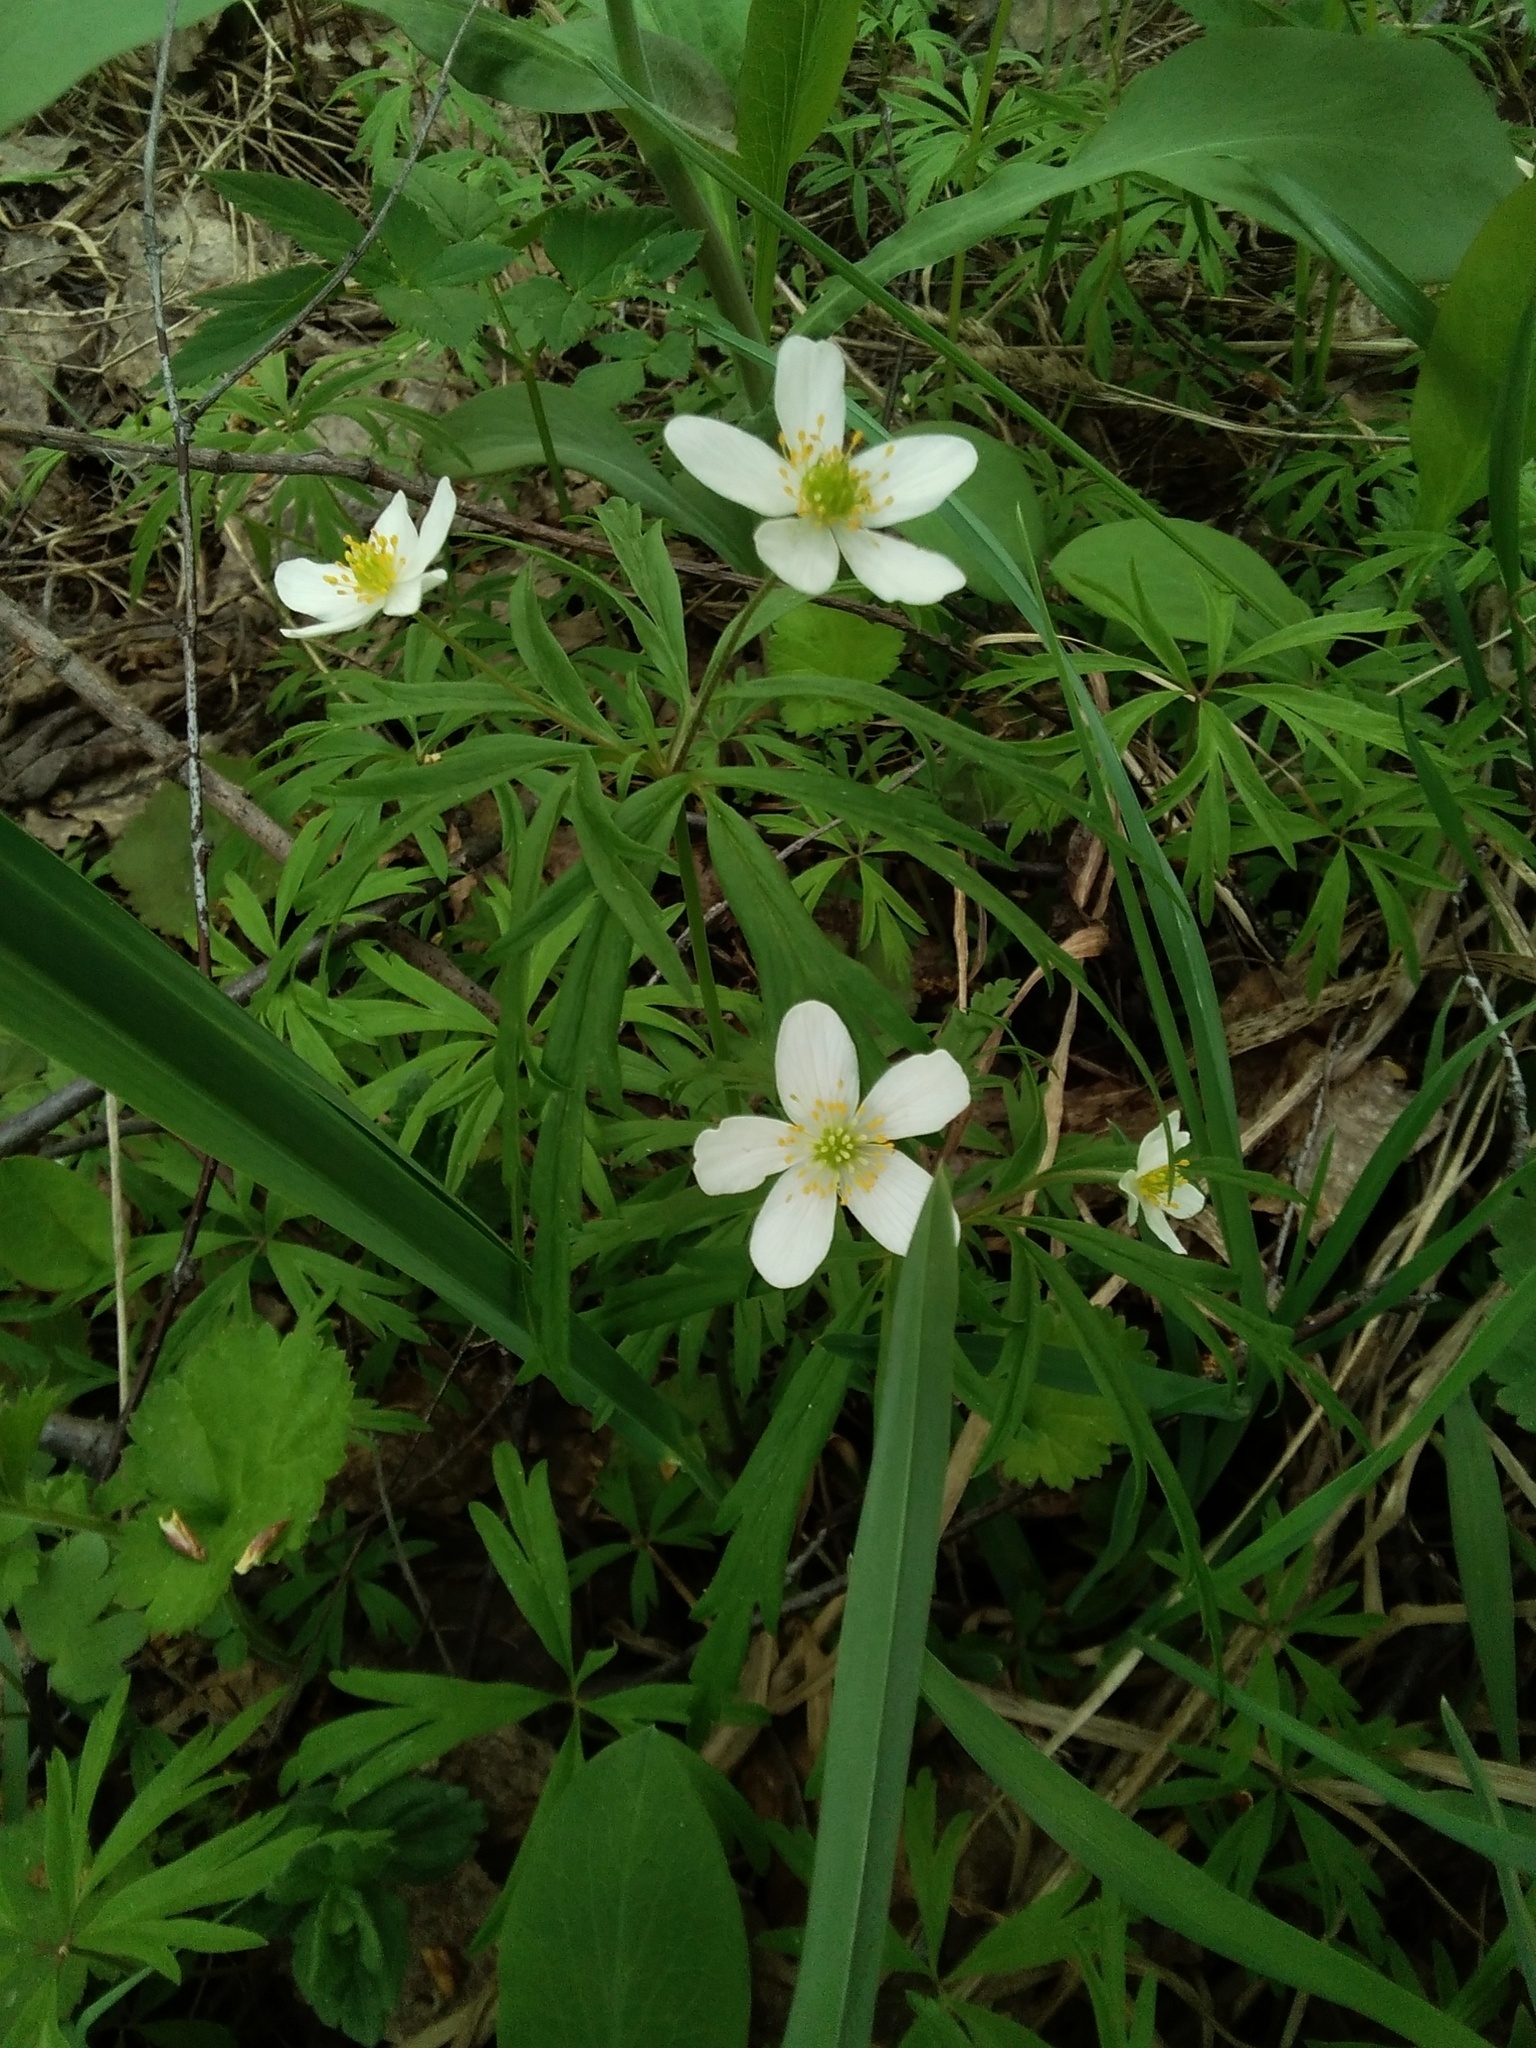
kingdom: Plantae
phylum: Tracheophyta
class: Magnoliopsida
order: Ranunculales
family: Ranunculaceae
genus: Anemone
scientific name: Anemone caerulea
